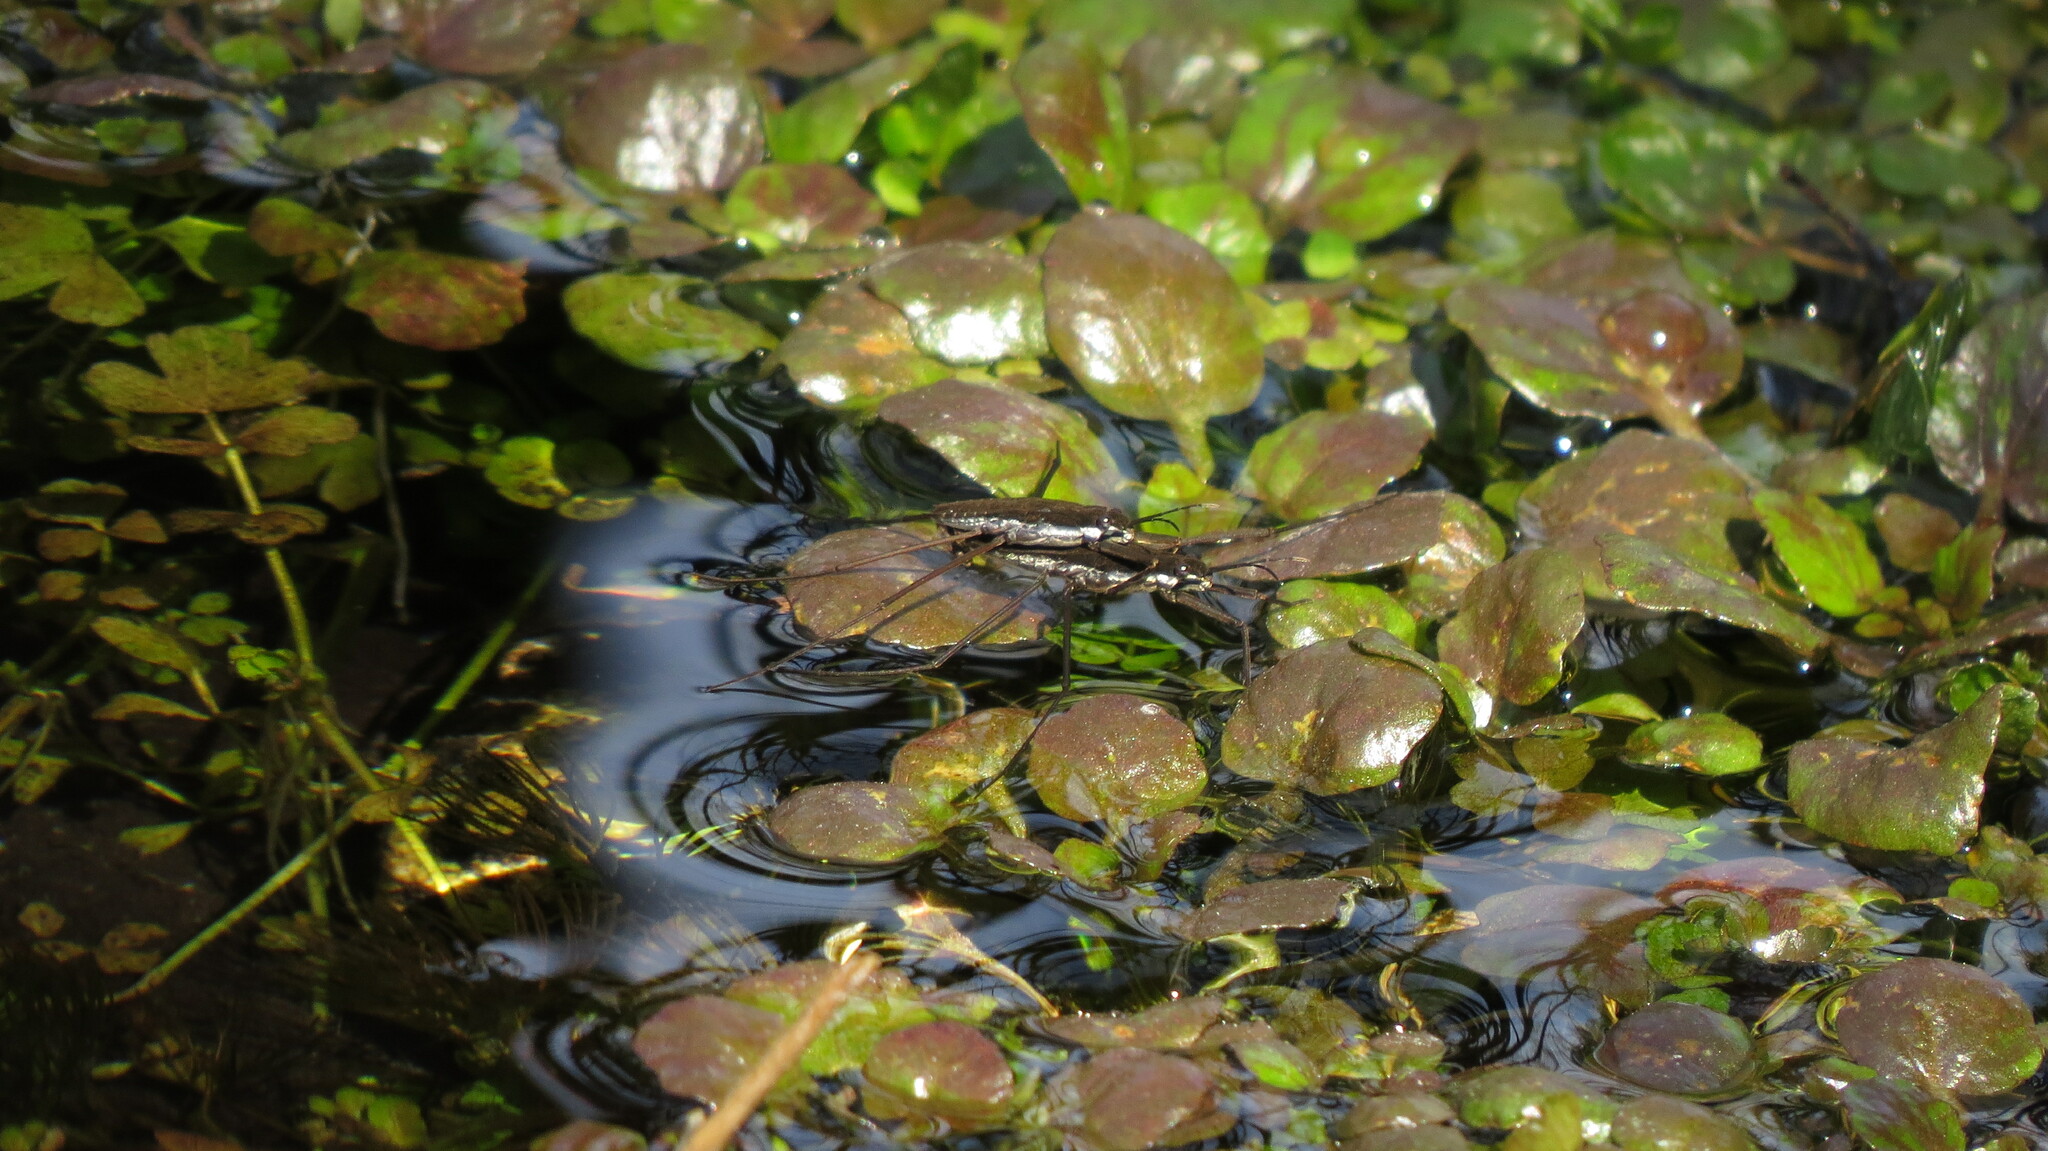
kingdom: Animalia
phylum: Arthropoda
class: Insecta
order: Hemiptera
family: Gerridae
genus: Aquarius
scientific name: Aquarius remigis
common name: Common water strider
